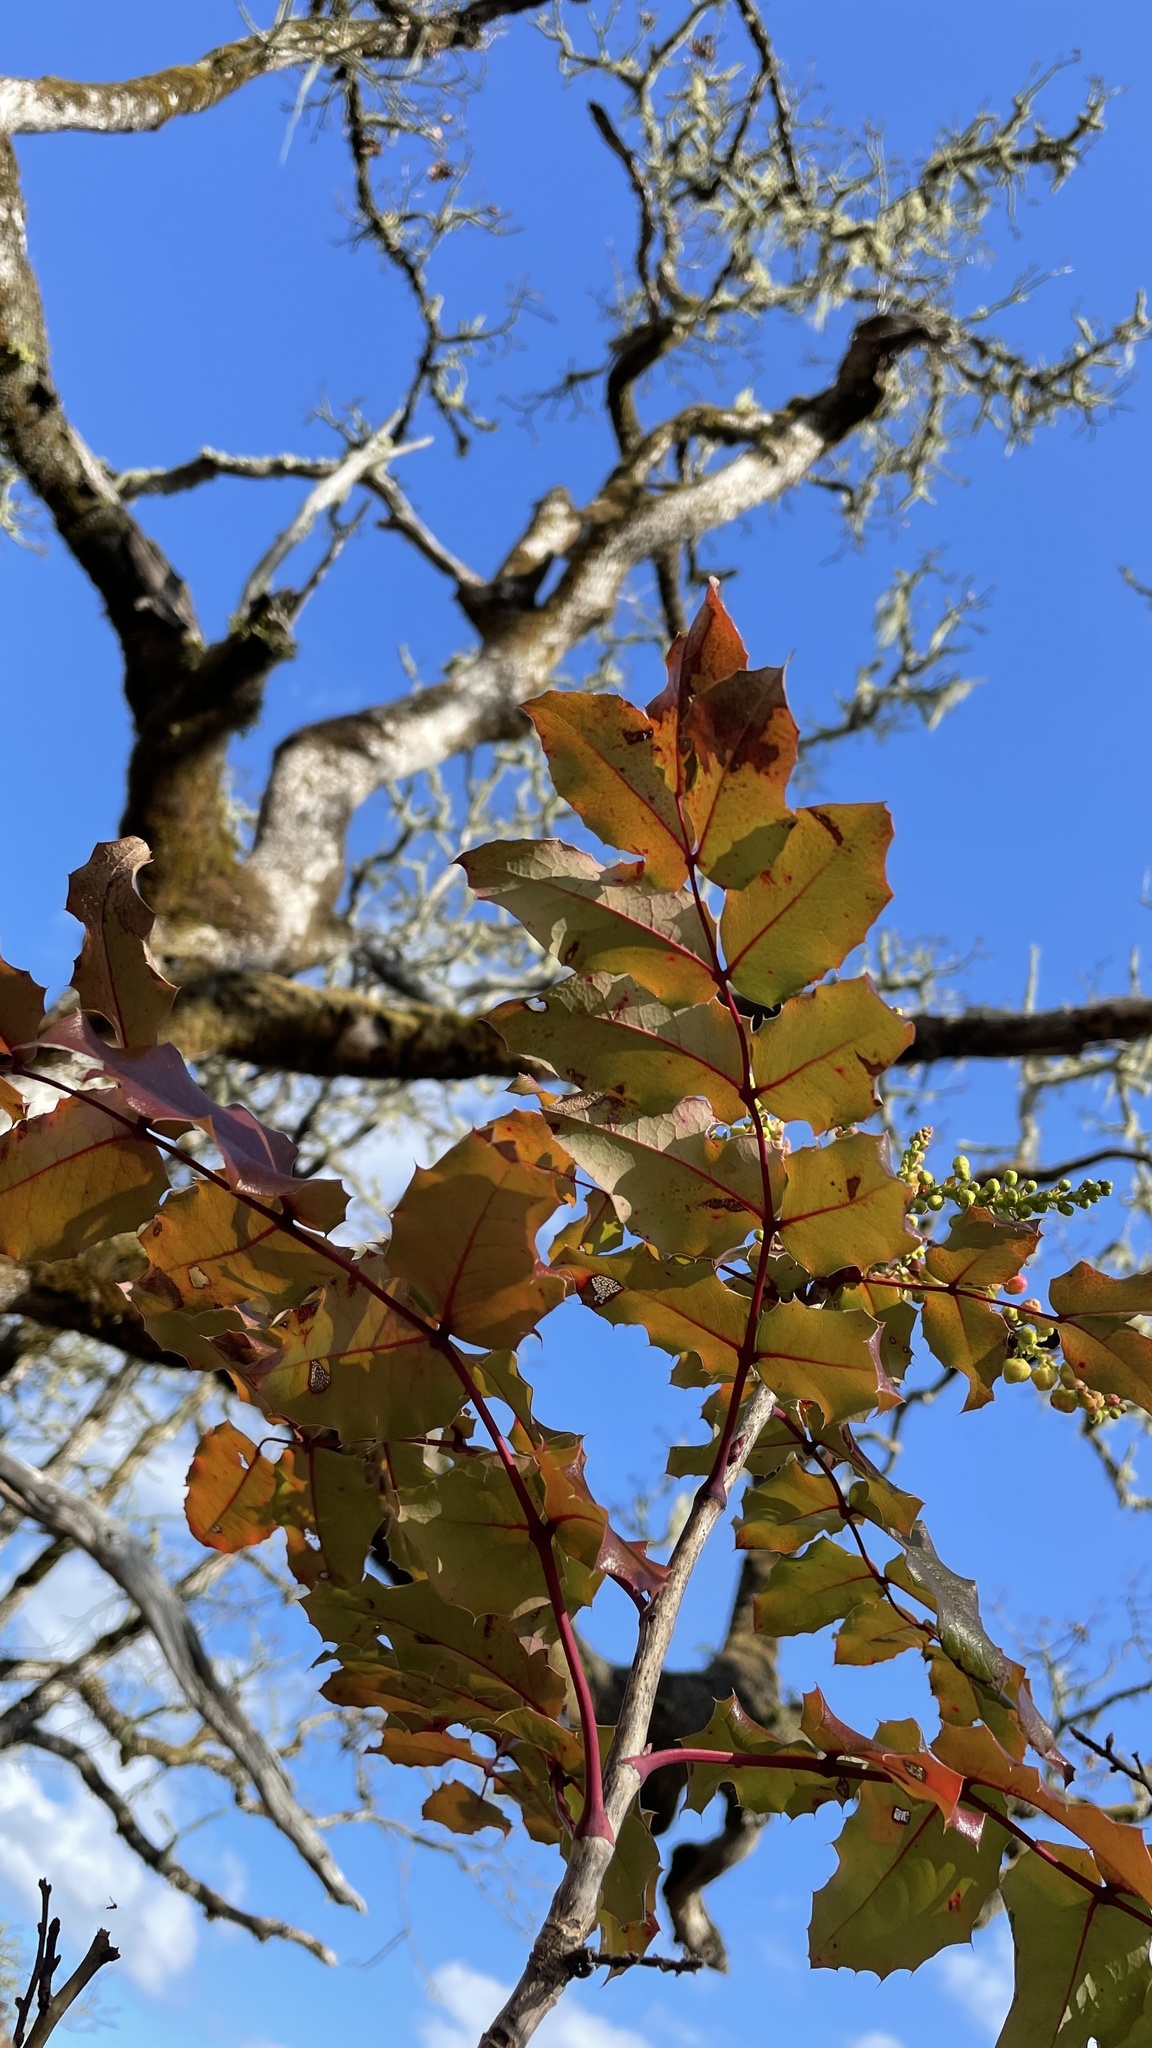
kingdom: Plantae
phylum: Tracheophyta
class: Magnoliopsida
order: Ranunculales
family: Berberidaceae
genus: Mahonia
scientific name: Mahonia aquifolium
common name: Oregon-grape
